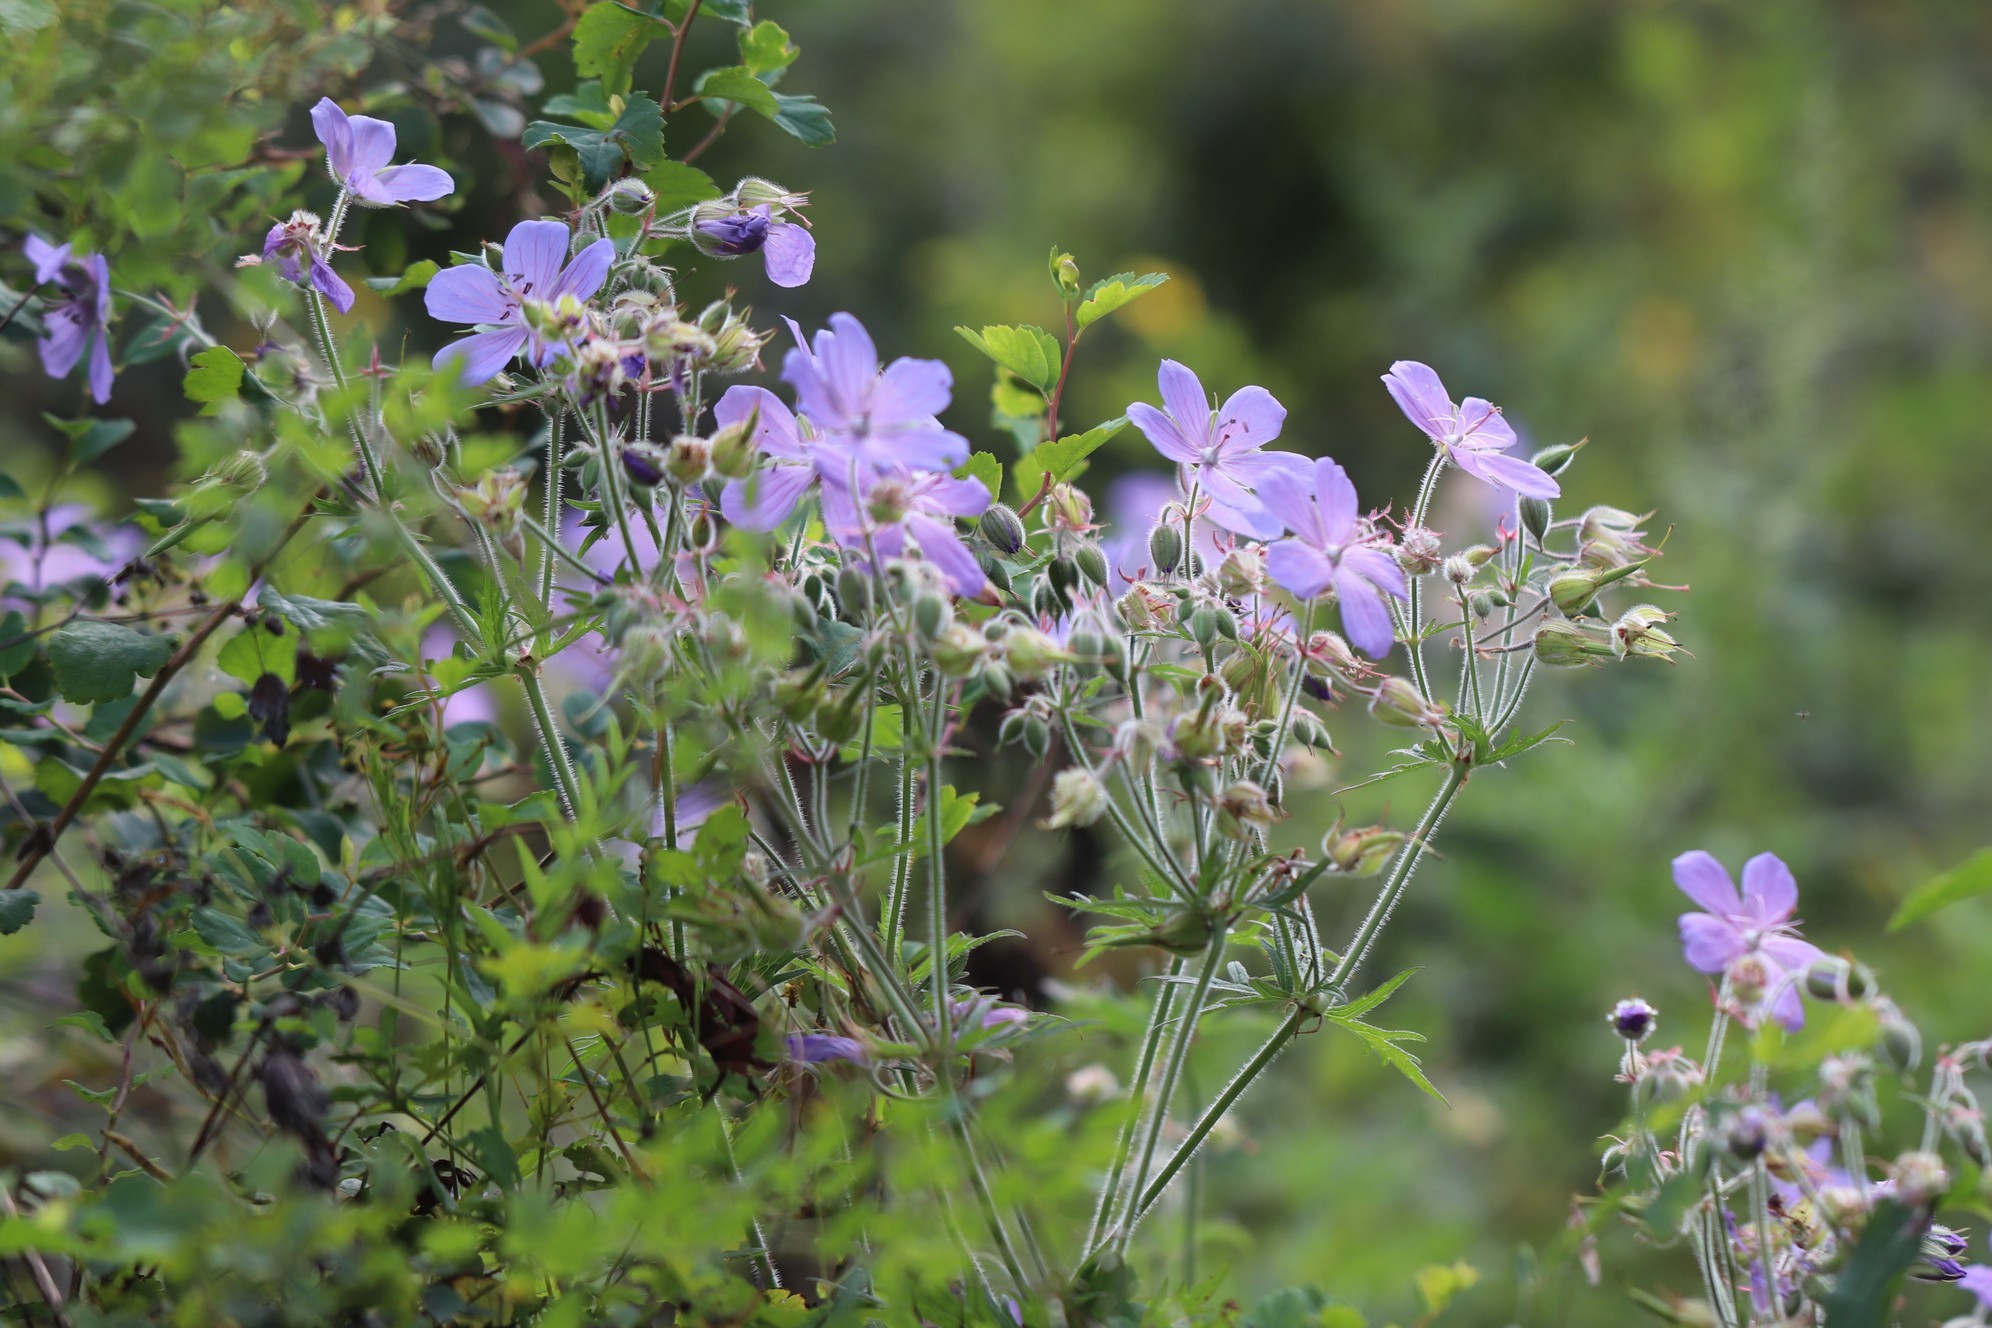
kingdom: Plantae
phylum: Tracheophyta
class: Magnoliopsida
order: Geraniales
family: Geraniaceae
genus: Geranium
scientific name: Geranium pratense
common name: Meadow crane's-bill
